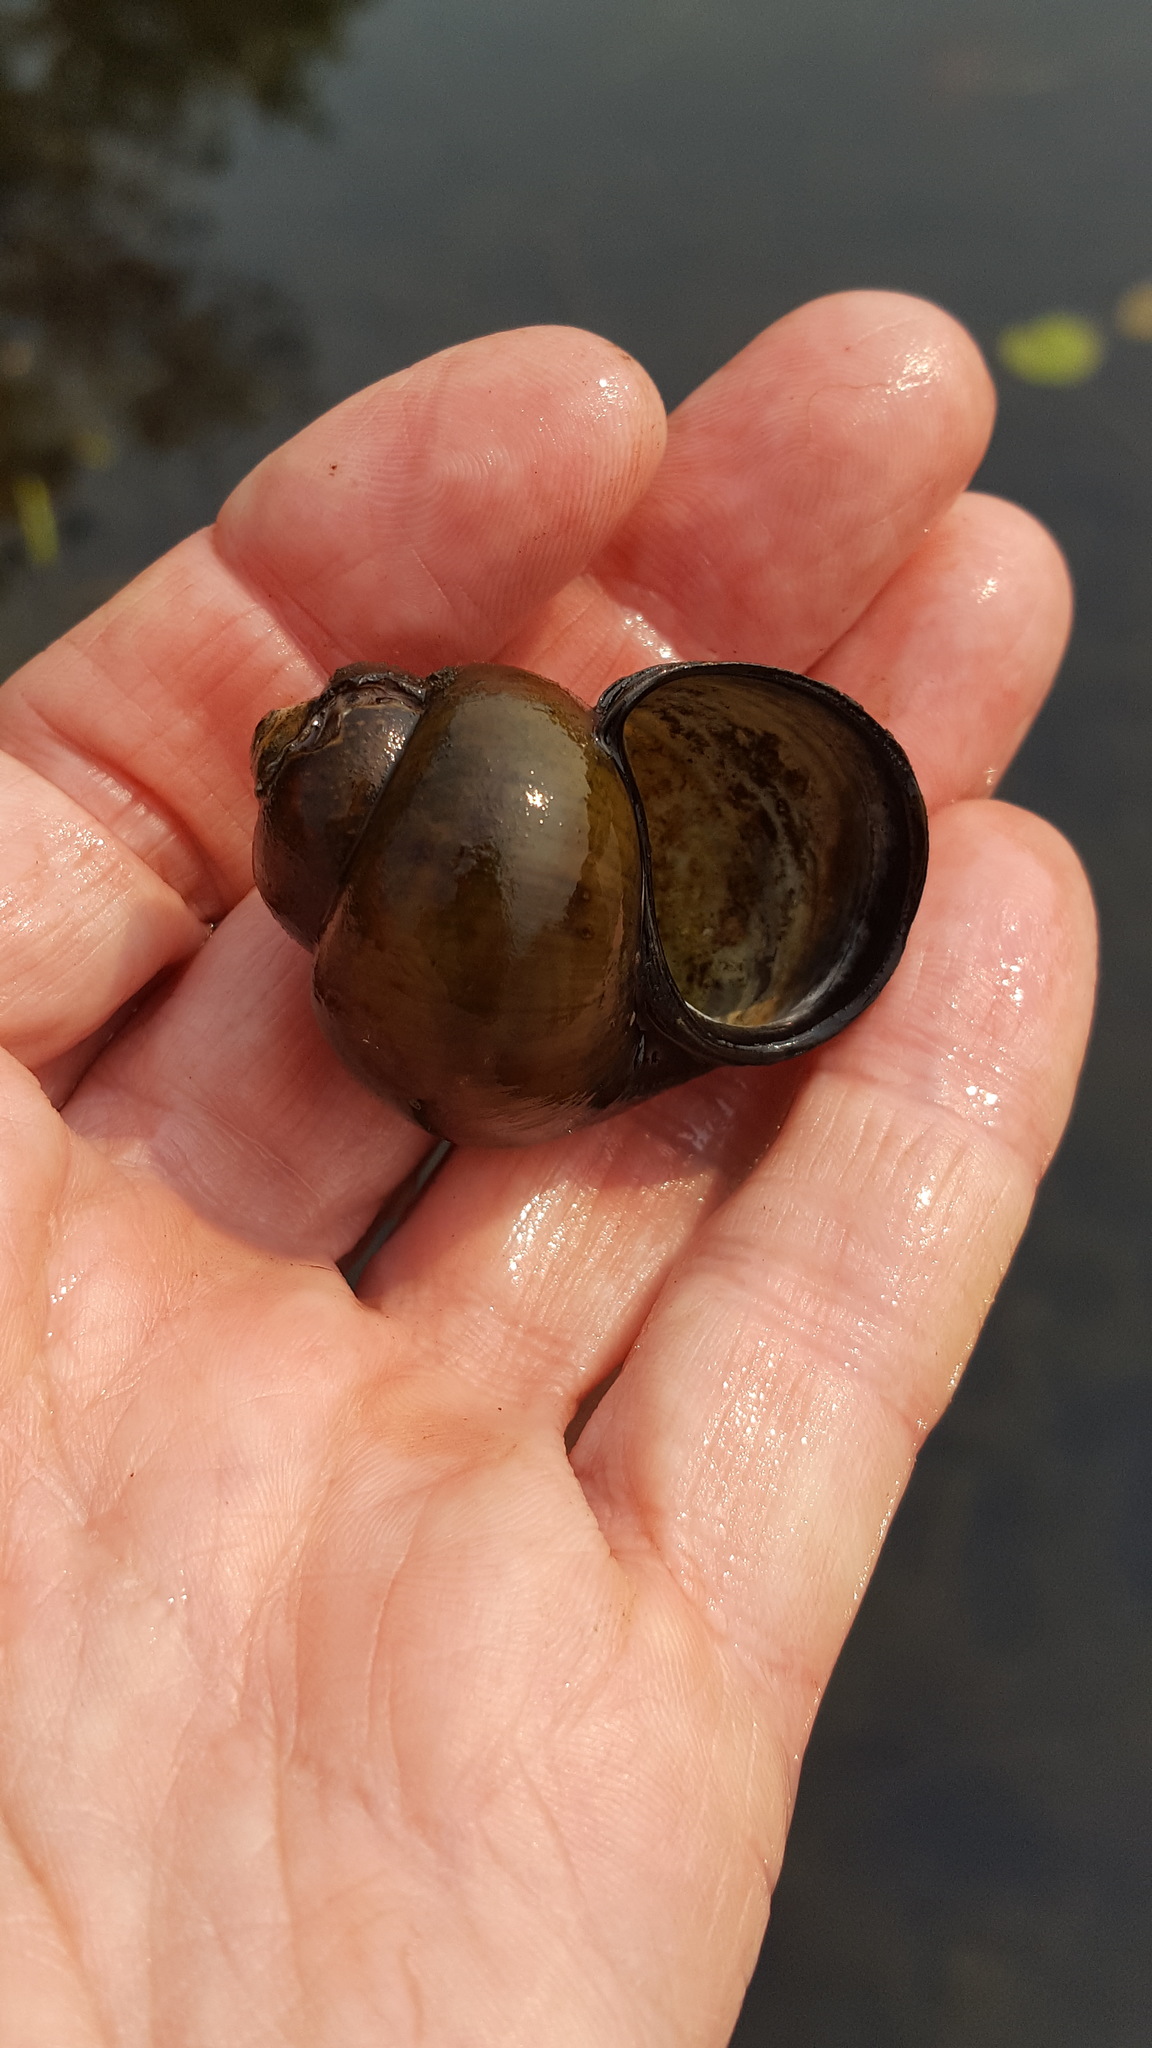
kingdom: Animalia
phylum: Mollusca
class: Gastropoda
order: Architaenioglossa
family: Viviparidae
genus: Cipangopaludina
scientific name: Cipangopaludina chinensis
